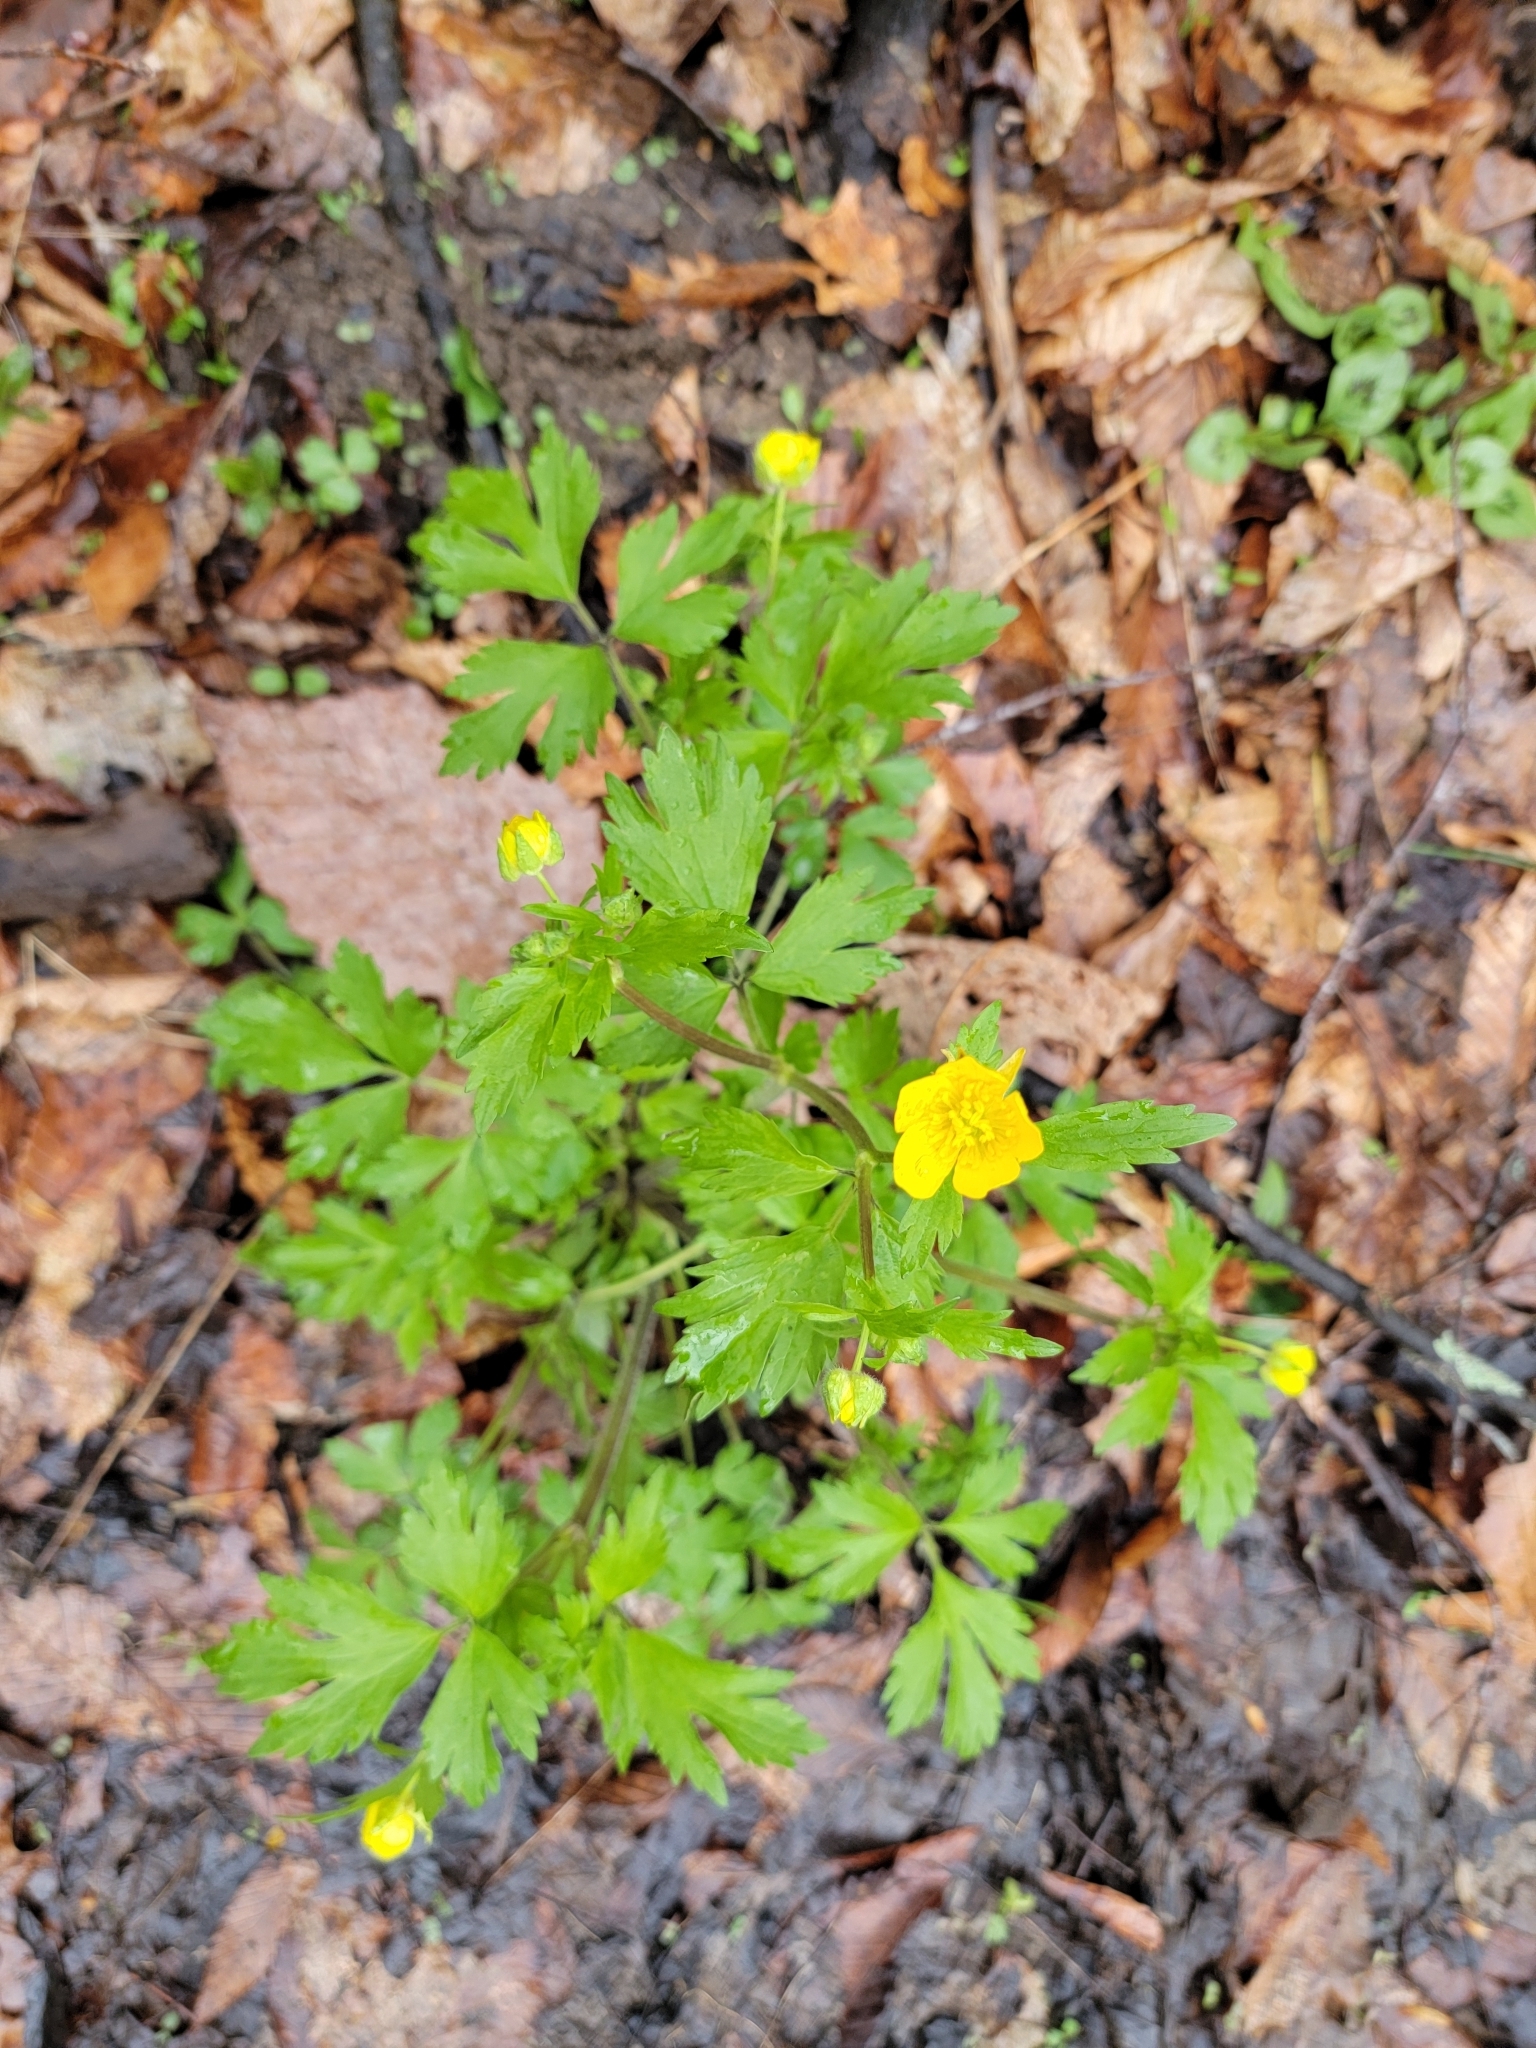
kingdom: Plantae
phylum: Tracheophyta
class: Magnoliopsida
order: Ranunculales
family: Ranunculaceae
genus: Ranunculus
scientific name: Ranunculus hispidus
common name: Bristly buttercup
